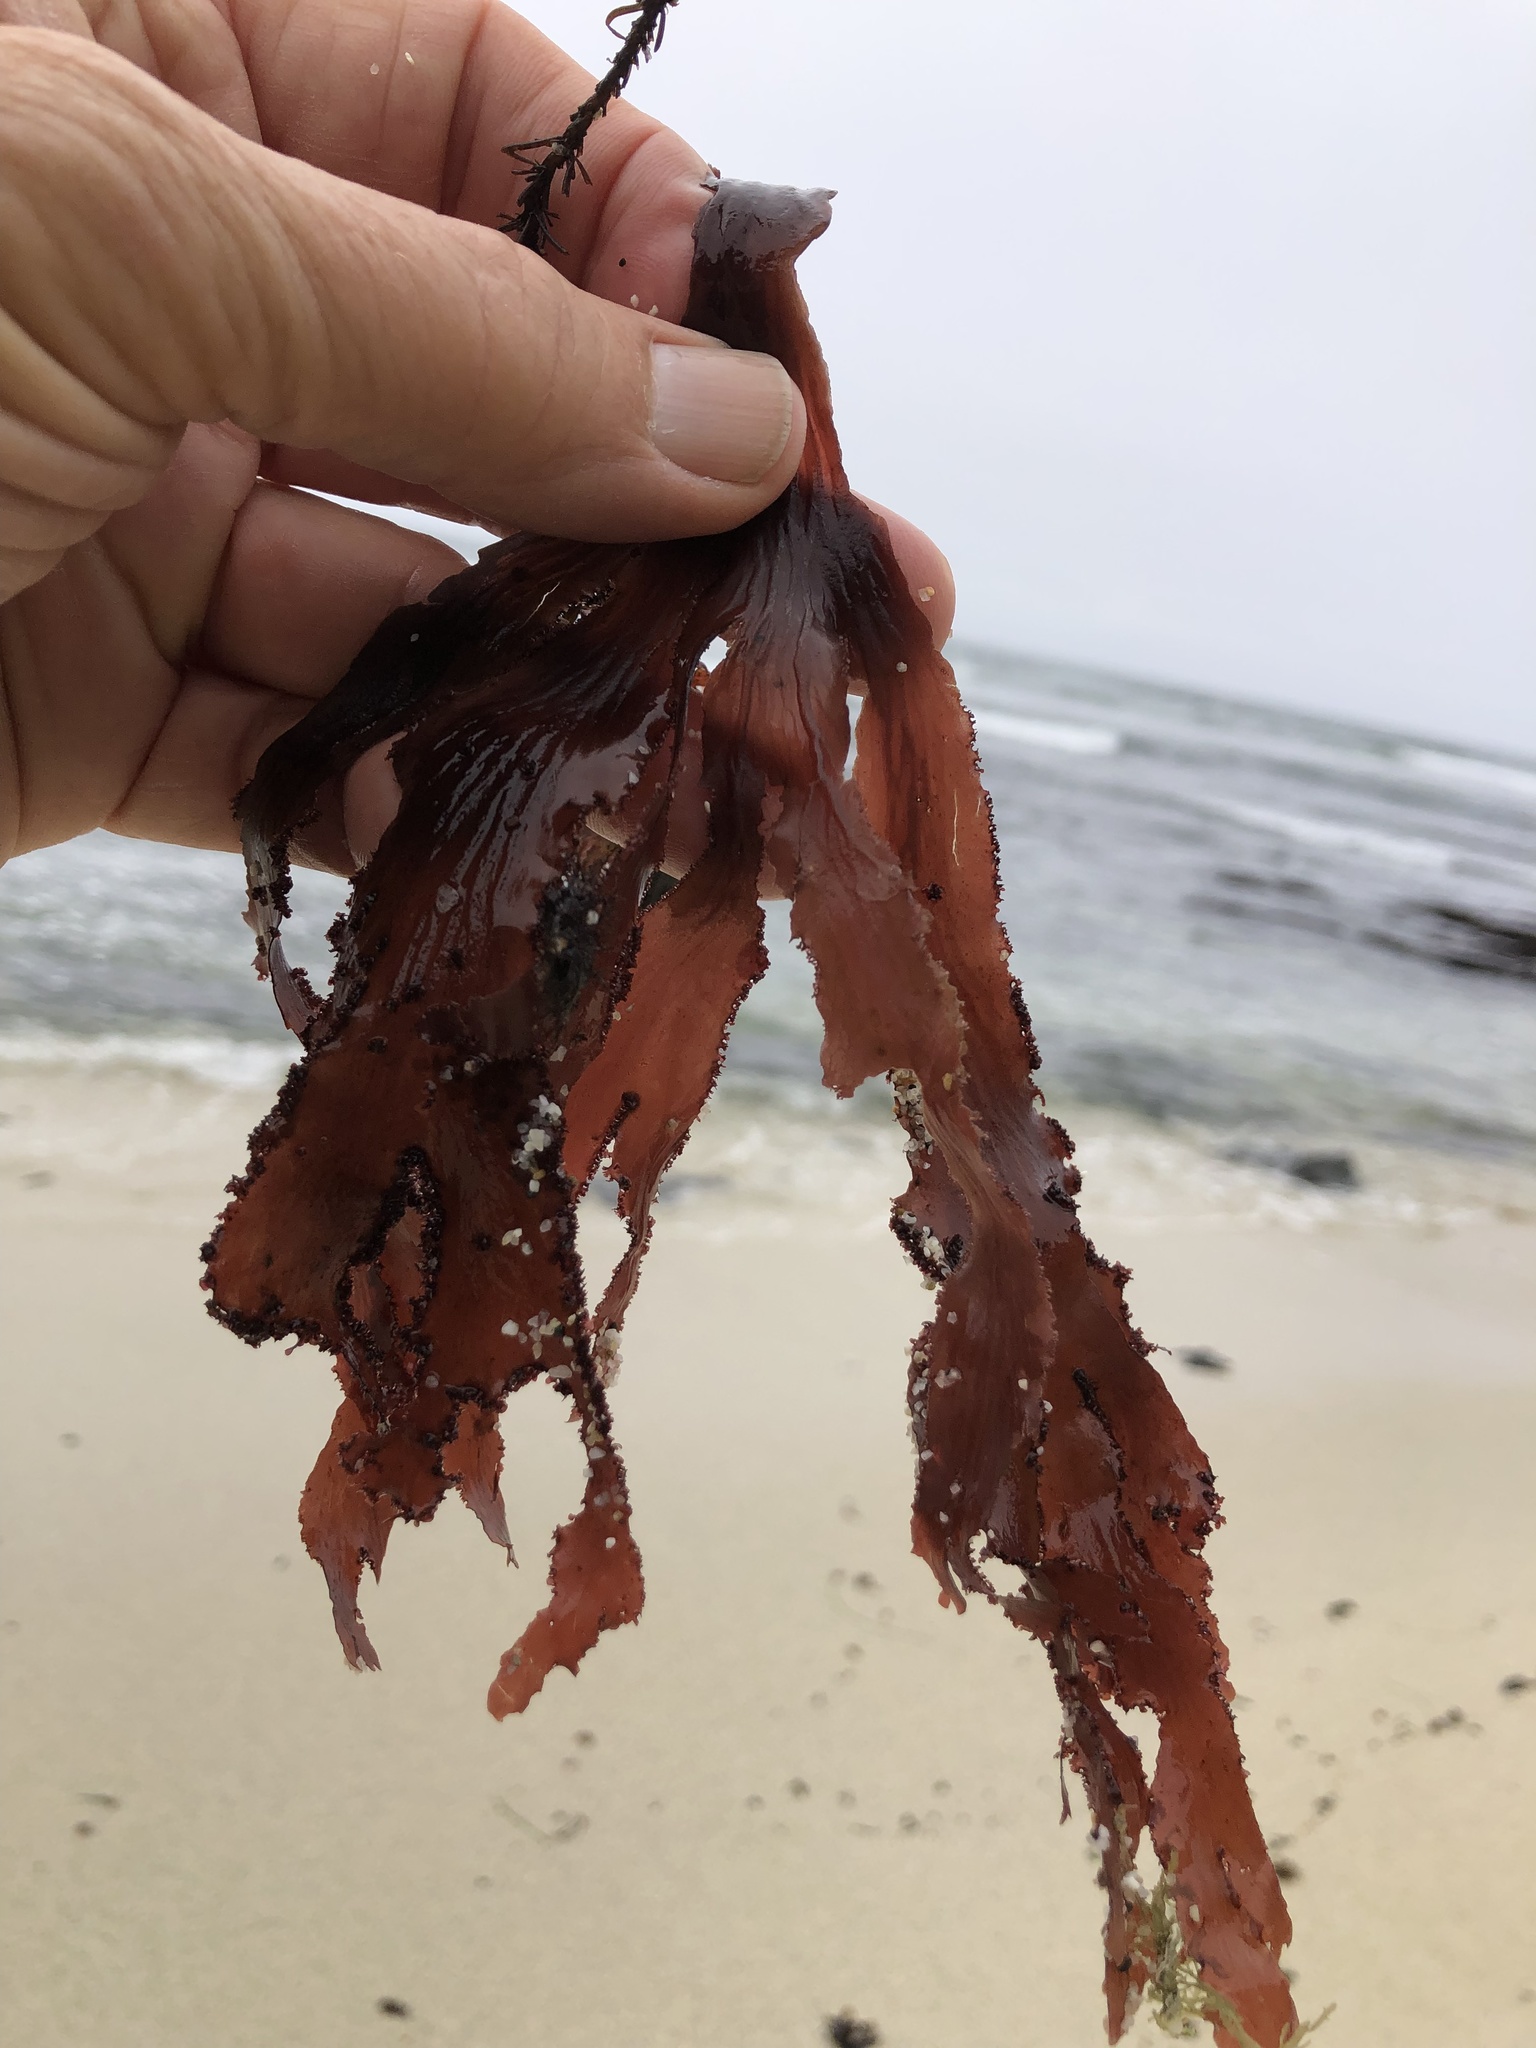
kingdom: Plantae
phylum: Rhodophyta
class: Florideophyceae
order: Ceramiales
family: Delesseriaceae
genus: Cryptopleura
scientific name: Cryptopleura ruprechtiana
